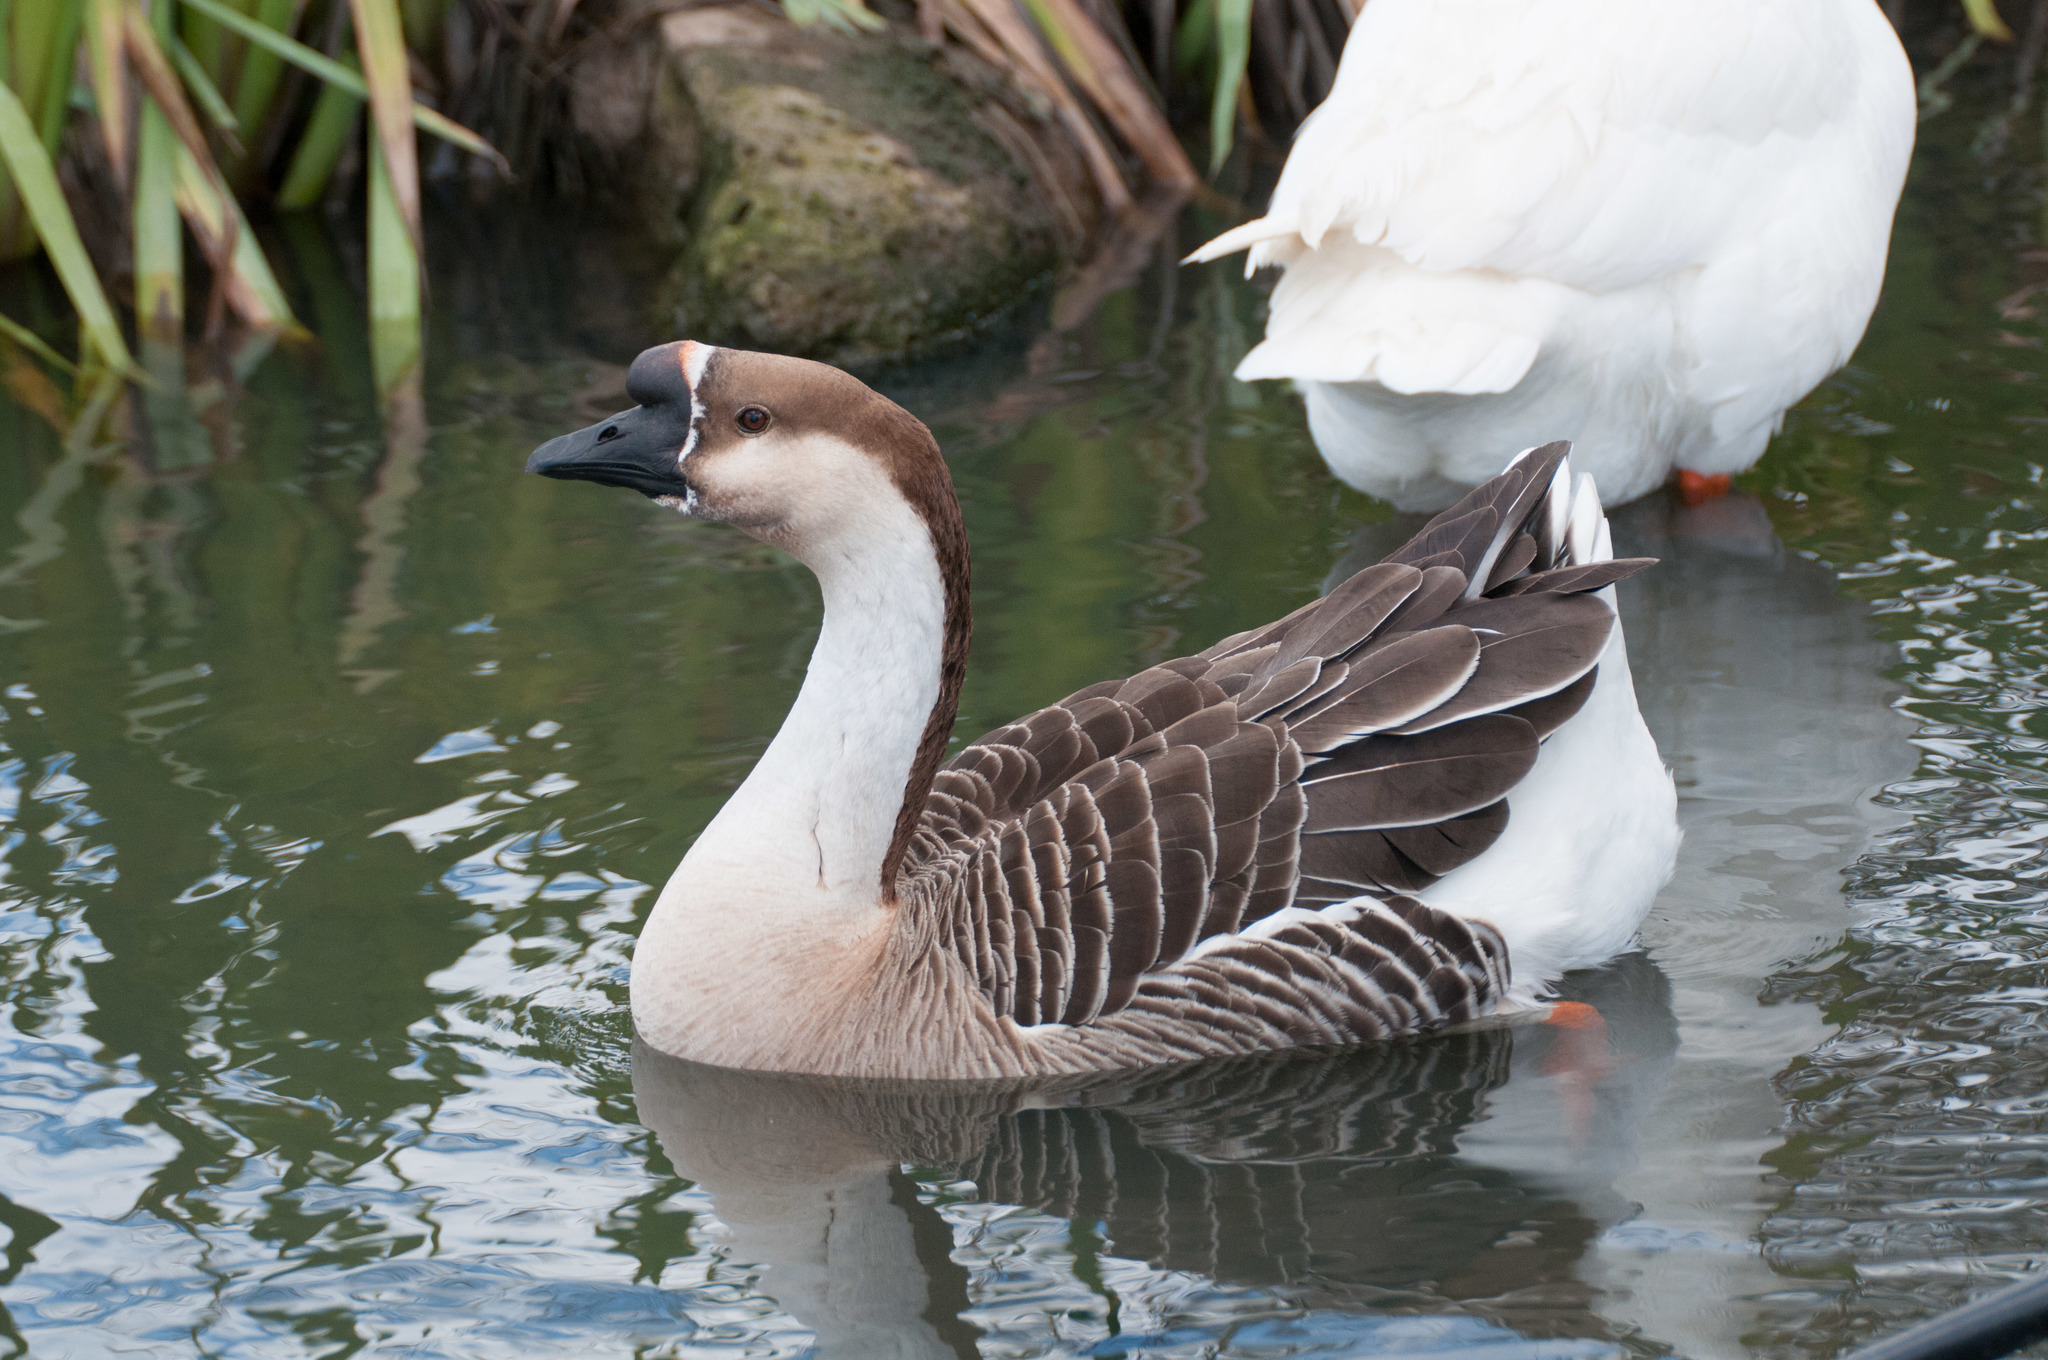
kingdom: Animalia
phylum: Chordata
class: Aves
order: Anseriformes
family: Anatidae
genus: Anser
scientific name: Anser cygnoides
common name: Swan goose
